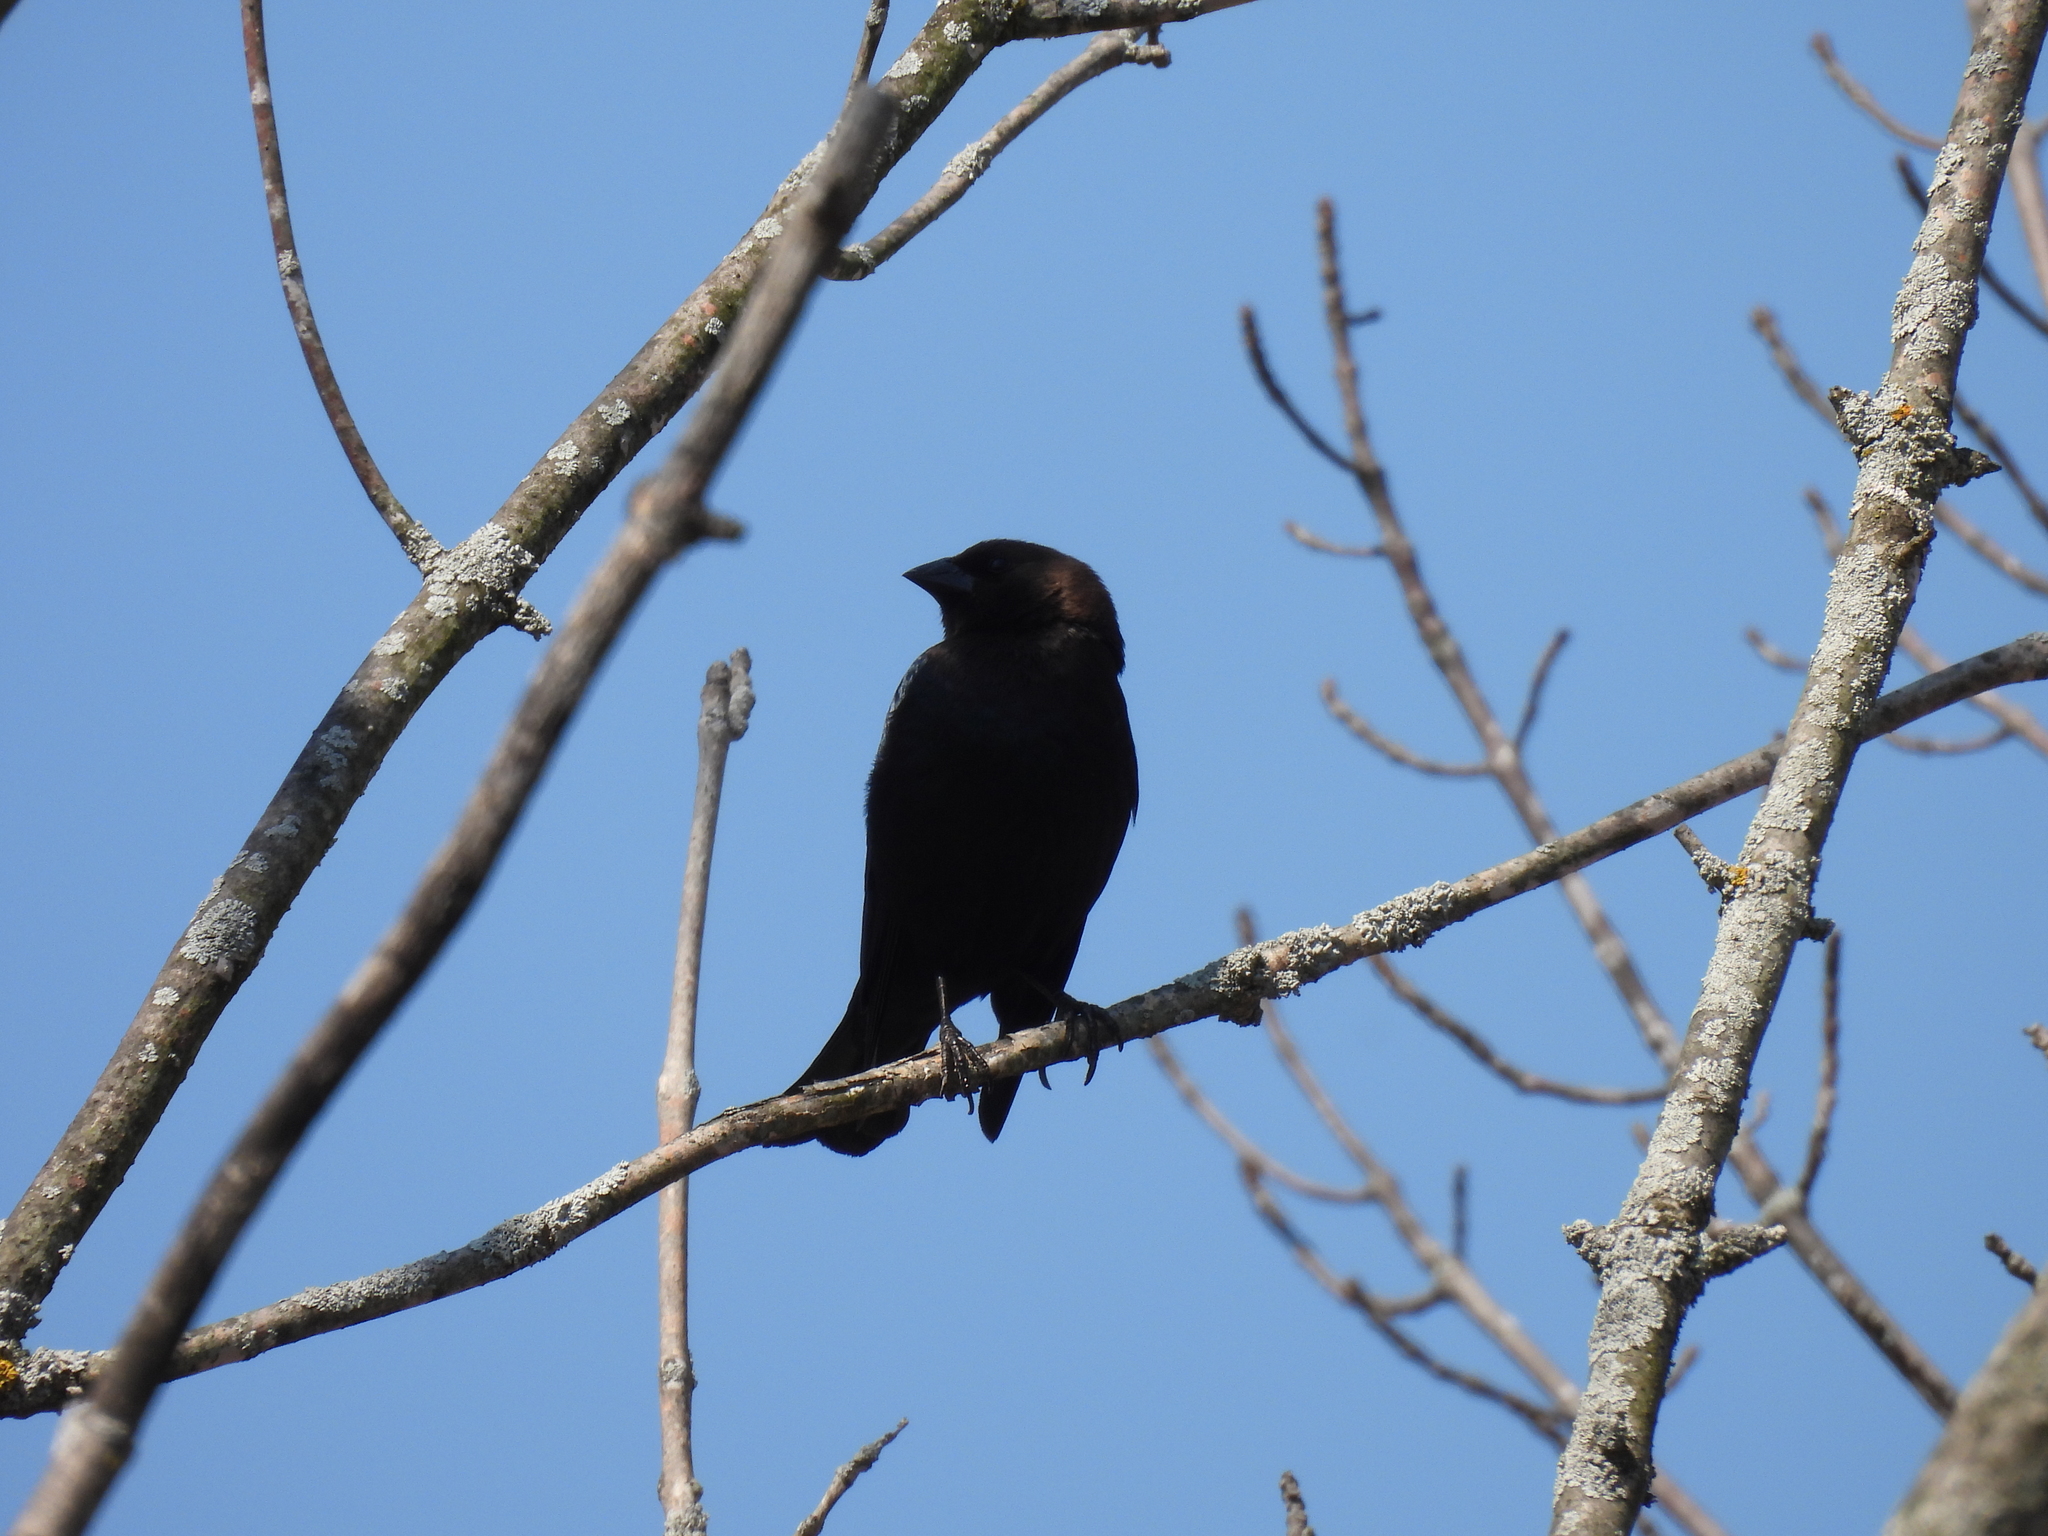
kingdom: Animalia
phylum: Chordata
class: Aves
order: Passeriformes
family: Icteridae
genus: Molothrus
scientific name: Molothrus ater
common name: Brown-headed cowbird
